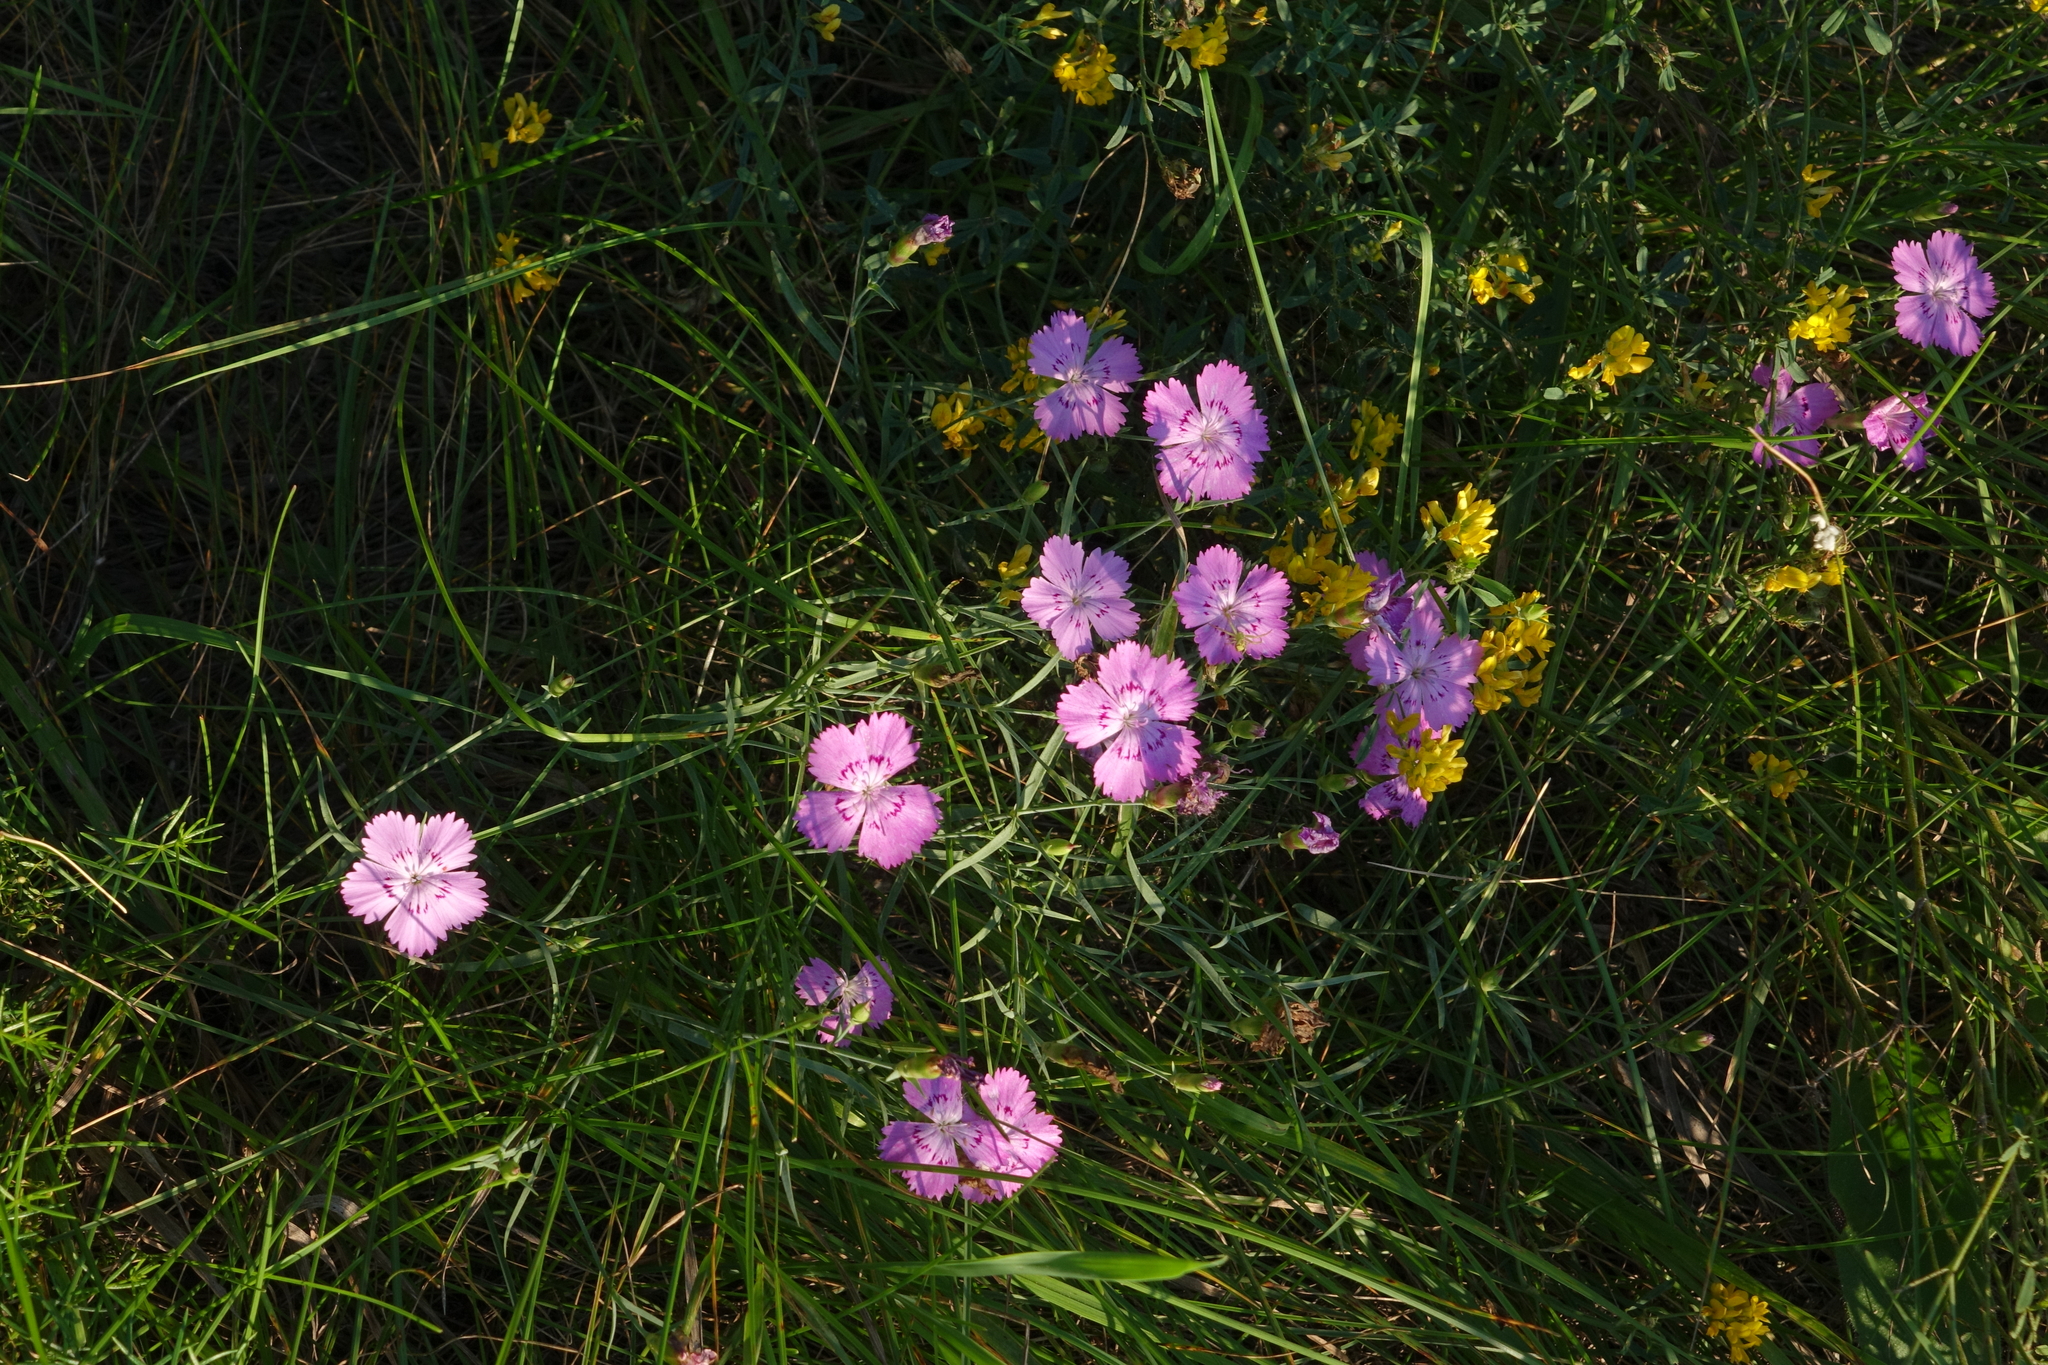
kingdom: Plantae
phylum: Tracheophyta
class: Magnoliopsida
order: Caryophyllales
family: Caryophyllaceae
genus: Dianthus
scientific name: Dianthus chinensis
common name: Rainbow pink
